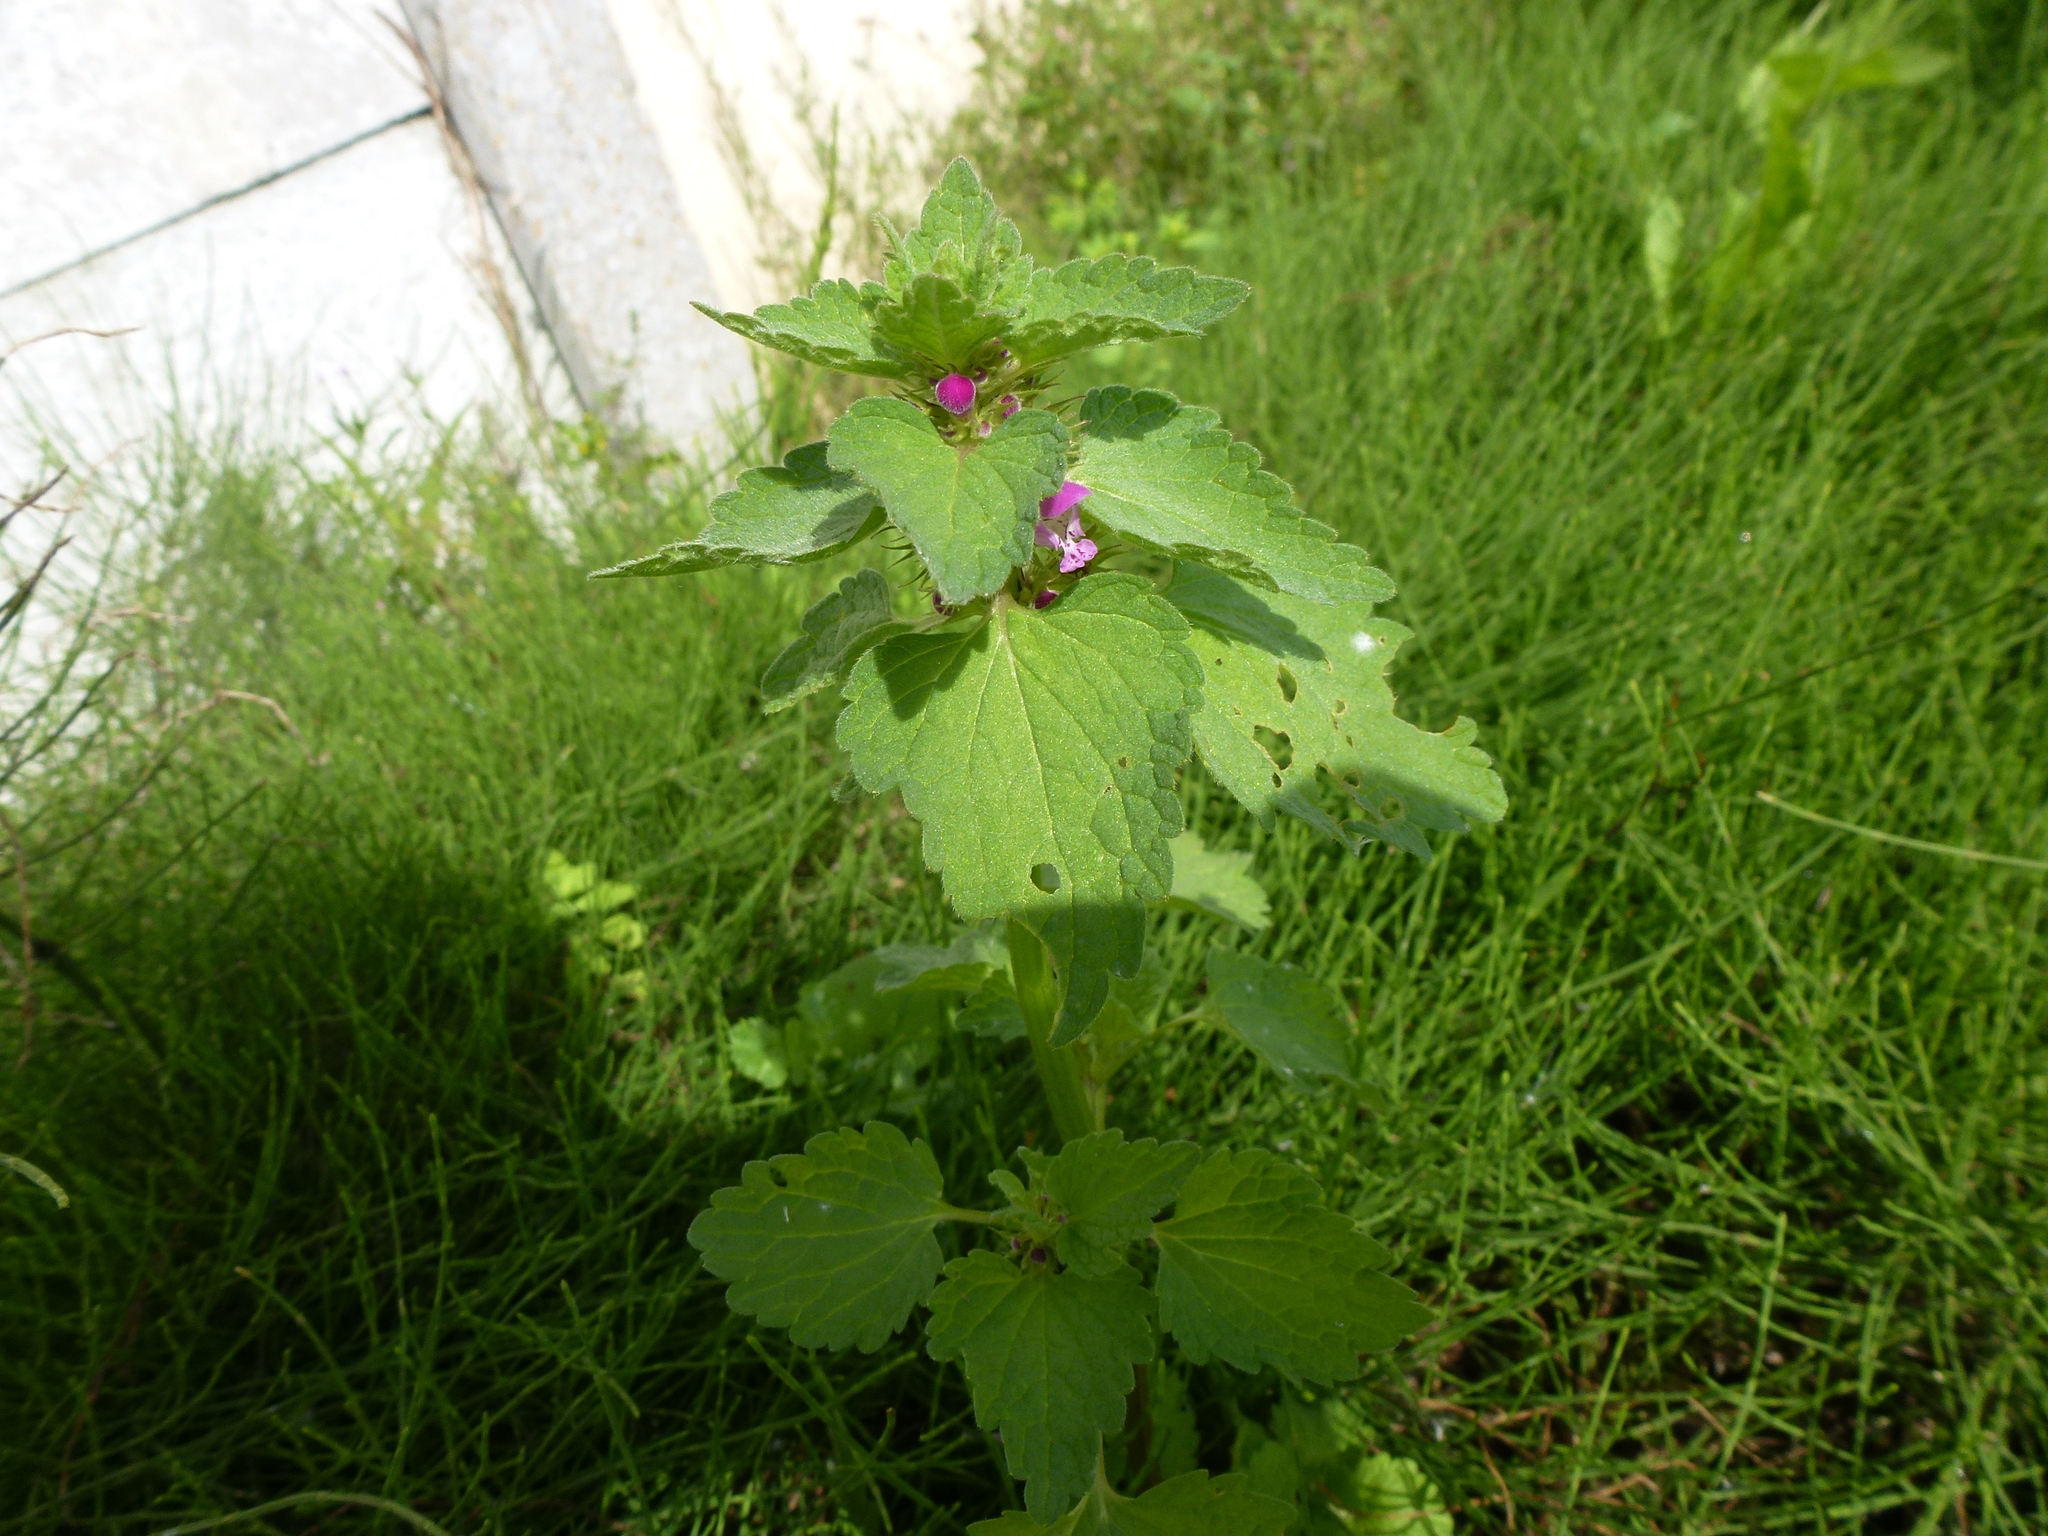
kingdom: Plantae
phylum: Tracheophyta
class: Magnoliopsida
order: Lamiales
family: Lamiaceae
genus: Lamium
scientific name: Lamium purpureum
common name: Red dead-nettle
